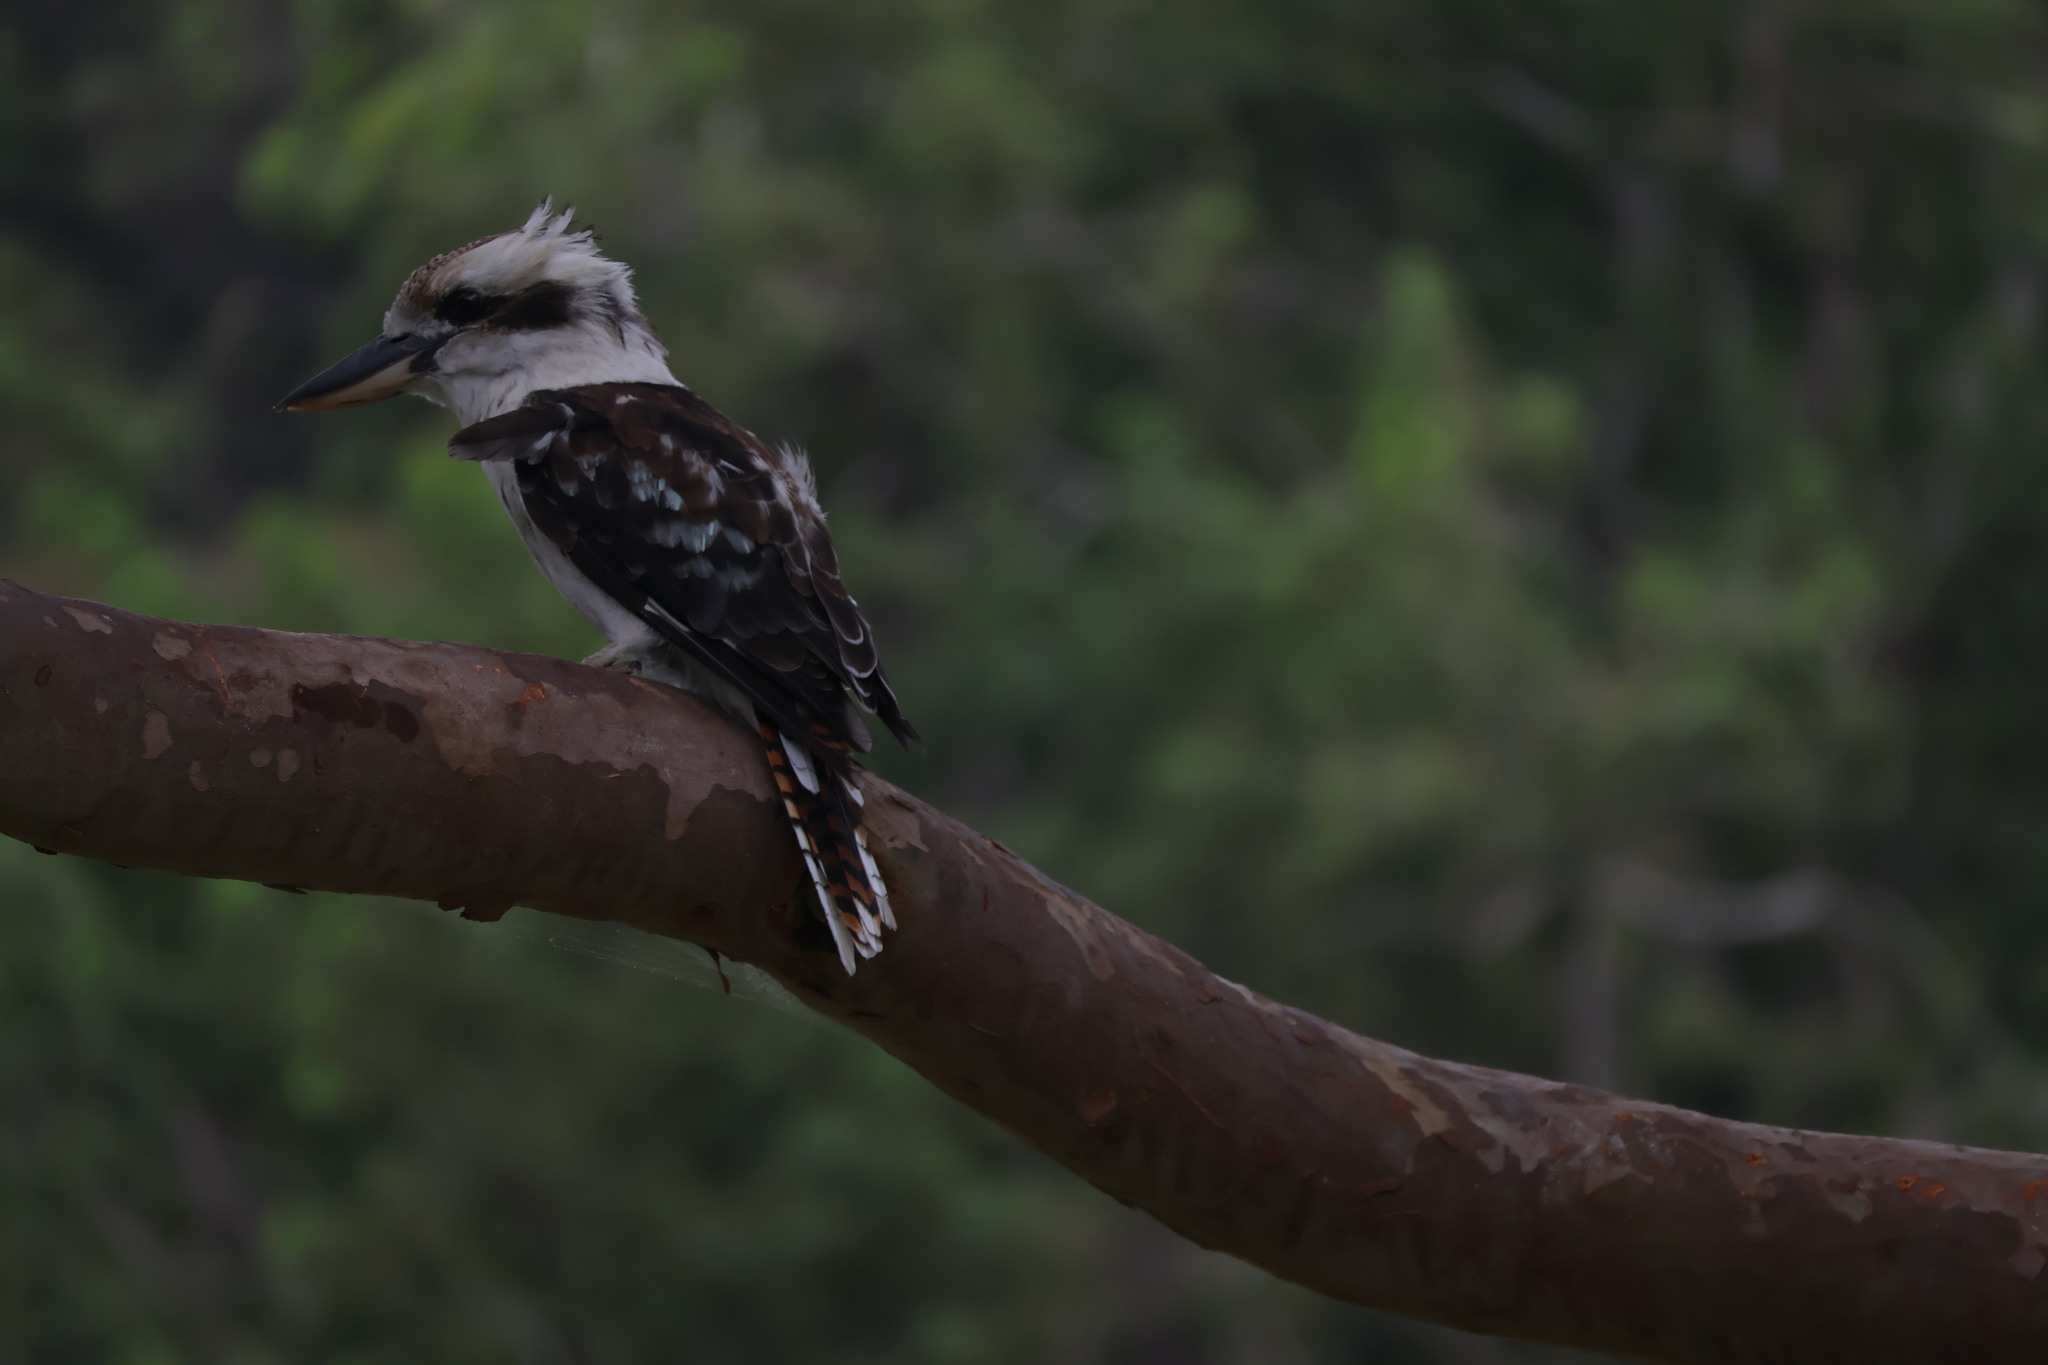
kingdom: Animalia
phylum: Chordata
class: Aves
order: Coraciiformes
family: Alcedinidae
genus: Dacelo
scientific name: Dacelo novaeguineae
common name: Laughing kookaburra
